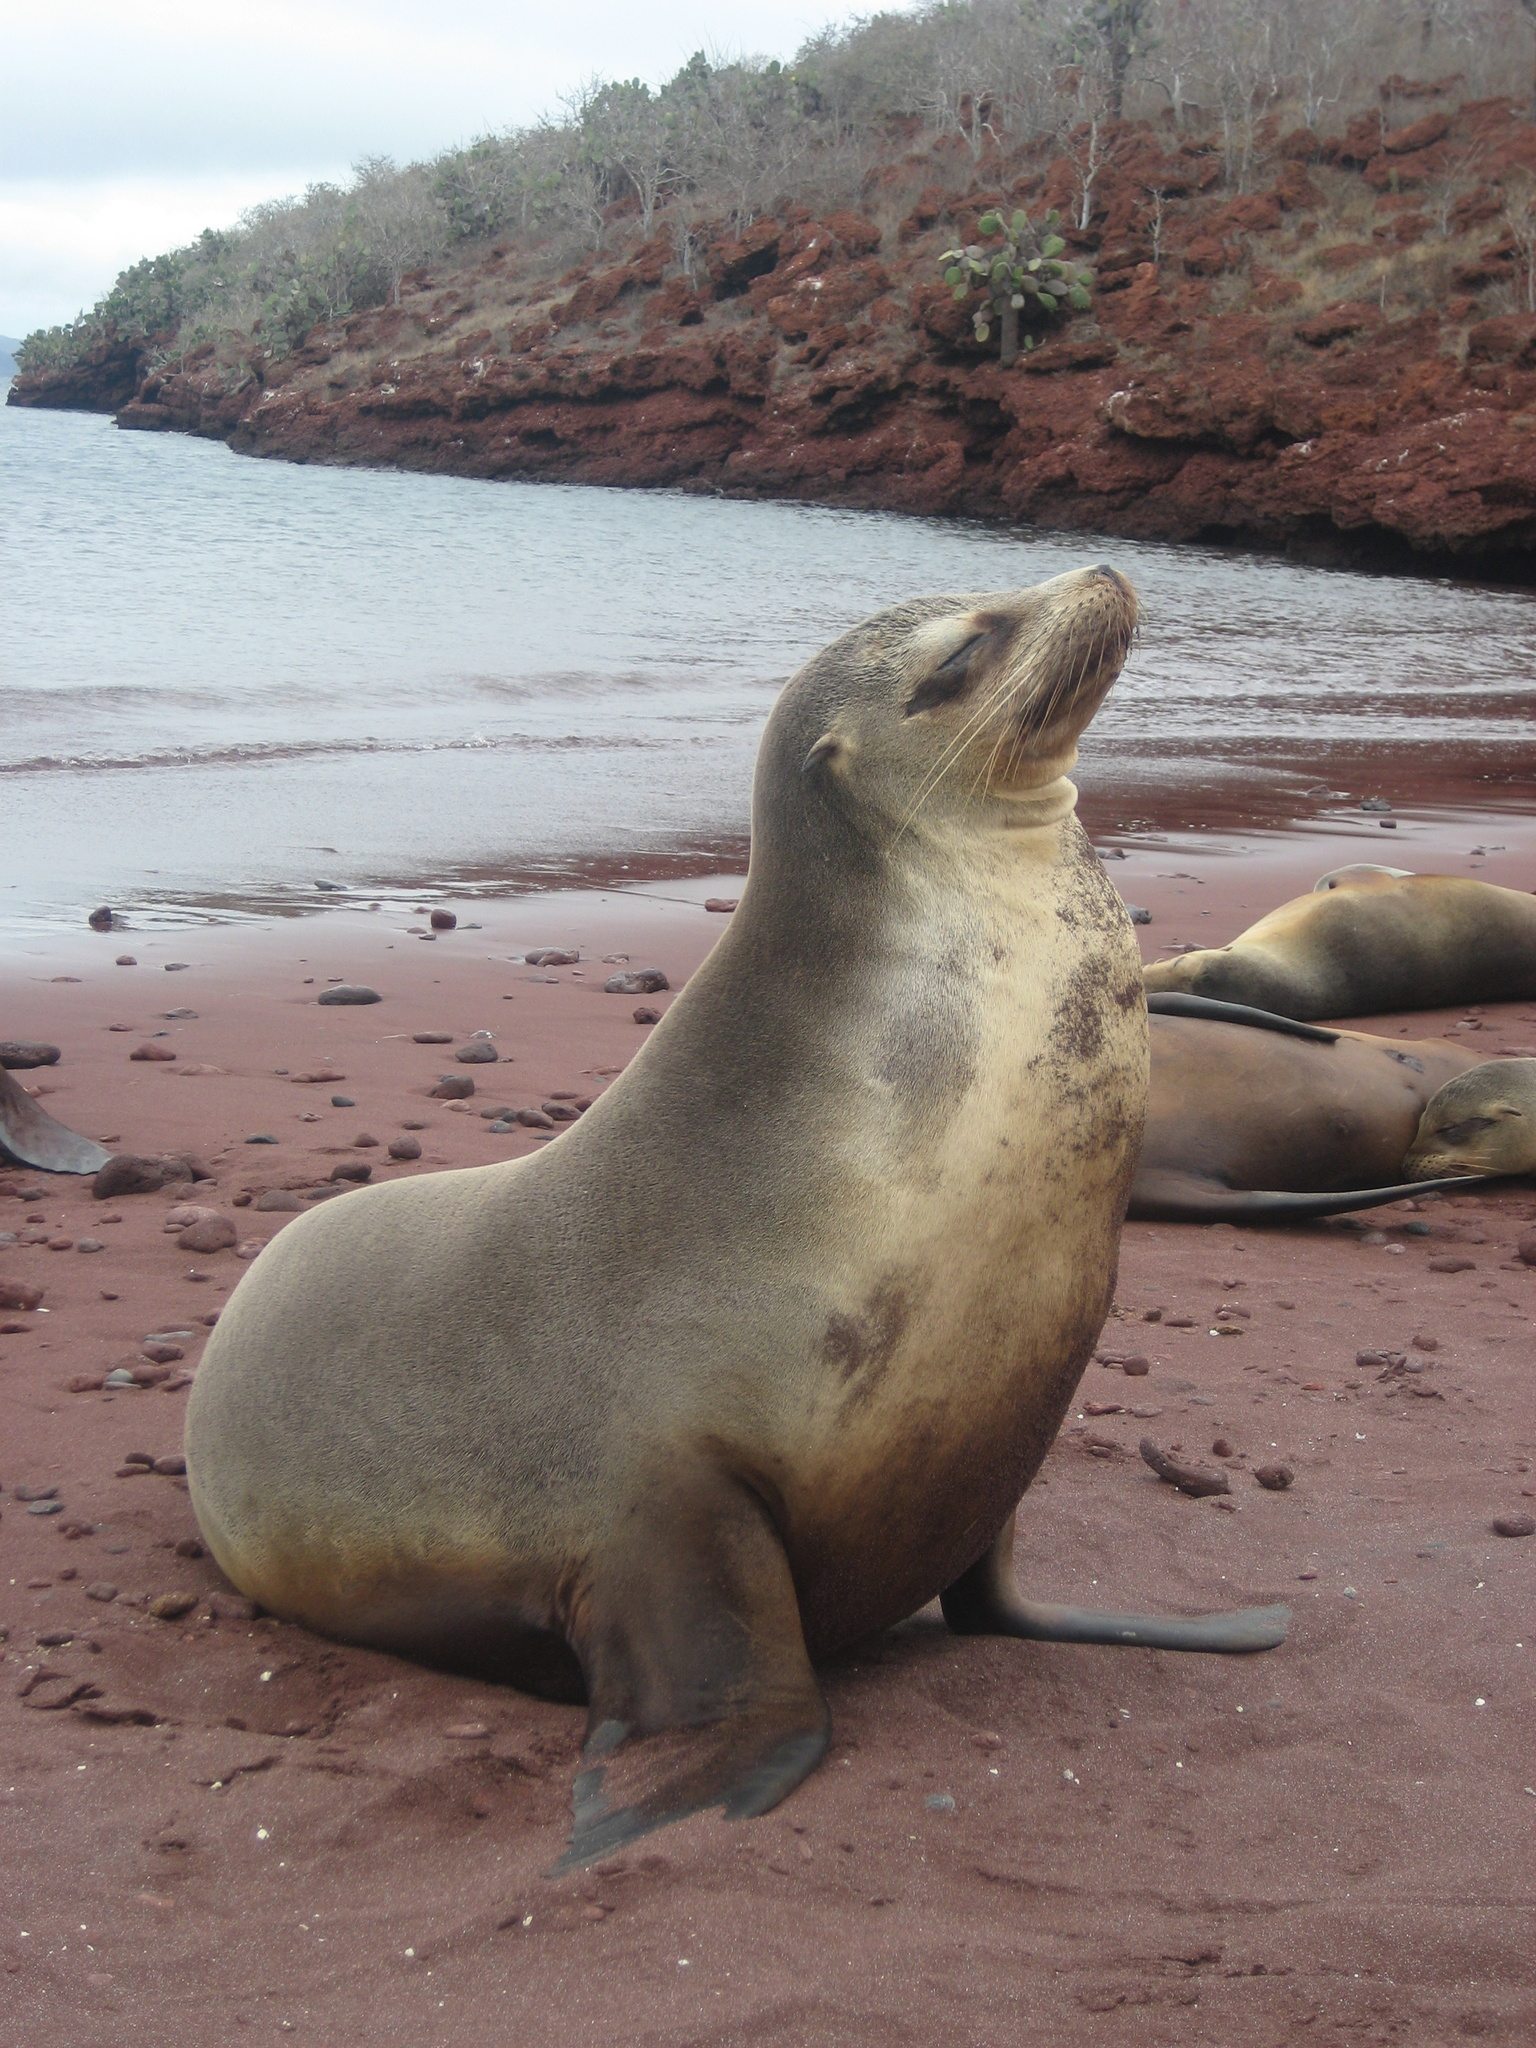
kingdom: Animalia
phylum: Chordata
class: Mammalia
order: Carnivora
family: Otariidae
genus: Zalophus
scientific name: Zalophus wollebaeki
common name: Galapagos sea lion
